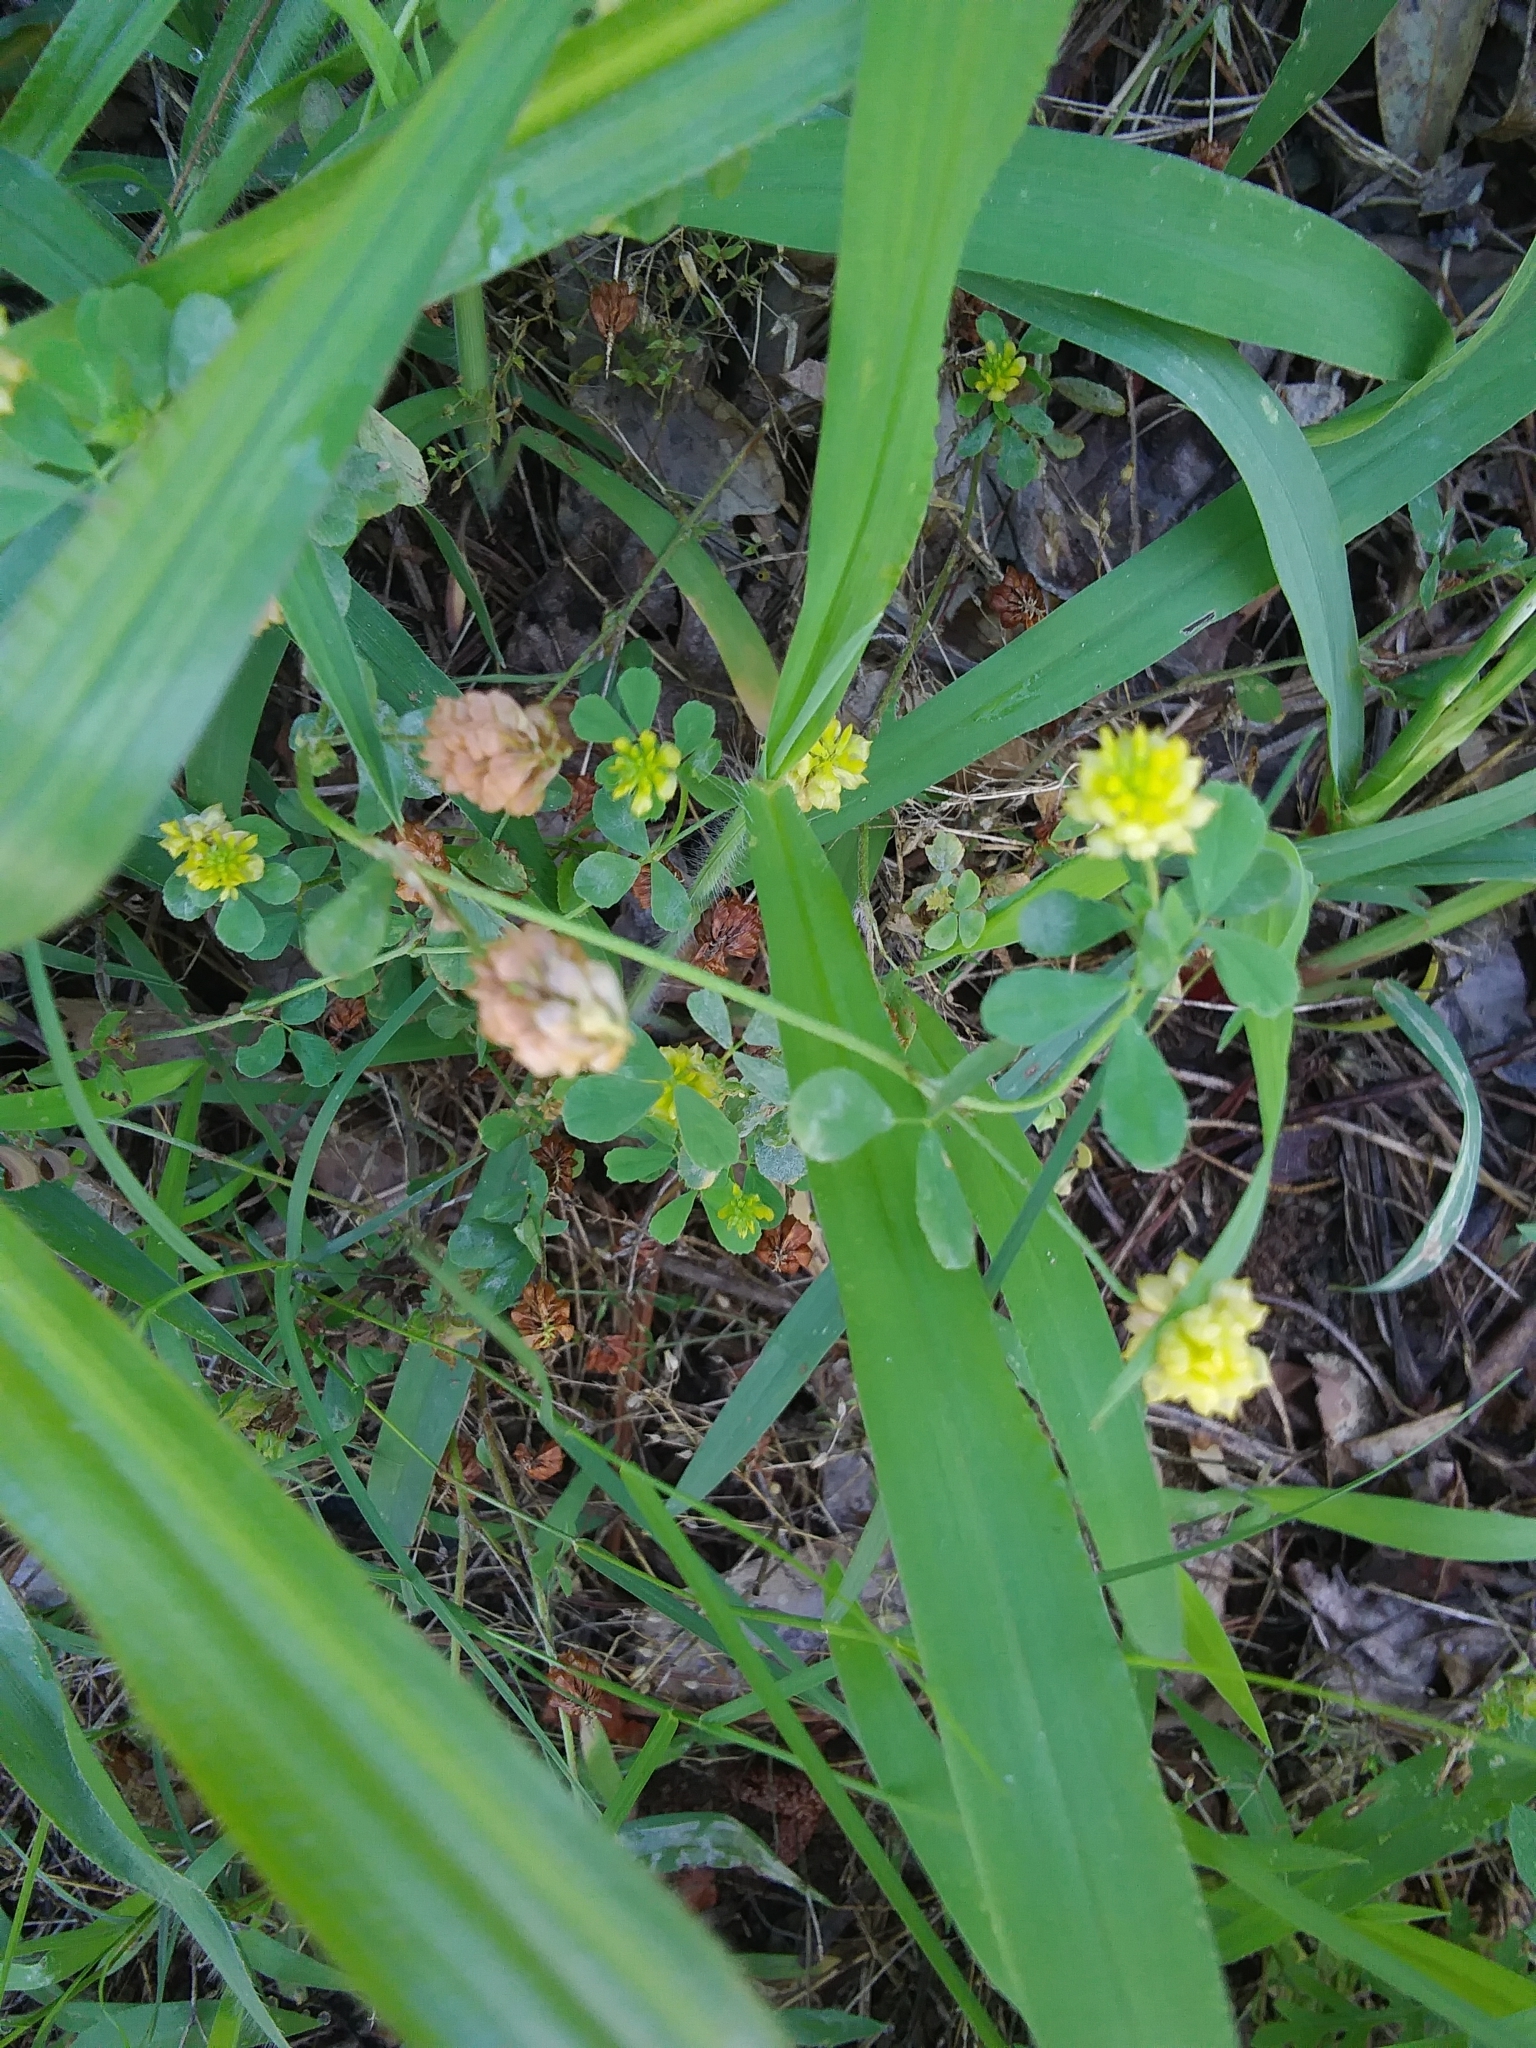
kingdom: Plantae
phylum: Tracheophyta
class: Magnoliopsida
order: Fabales
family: Fabaceae
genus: Trifolium
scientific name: Trifolium campestre
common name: Field clover
